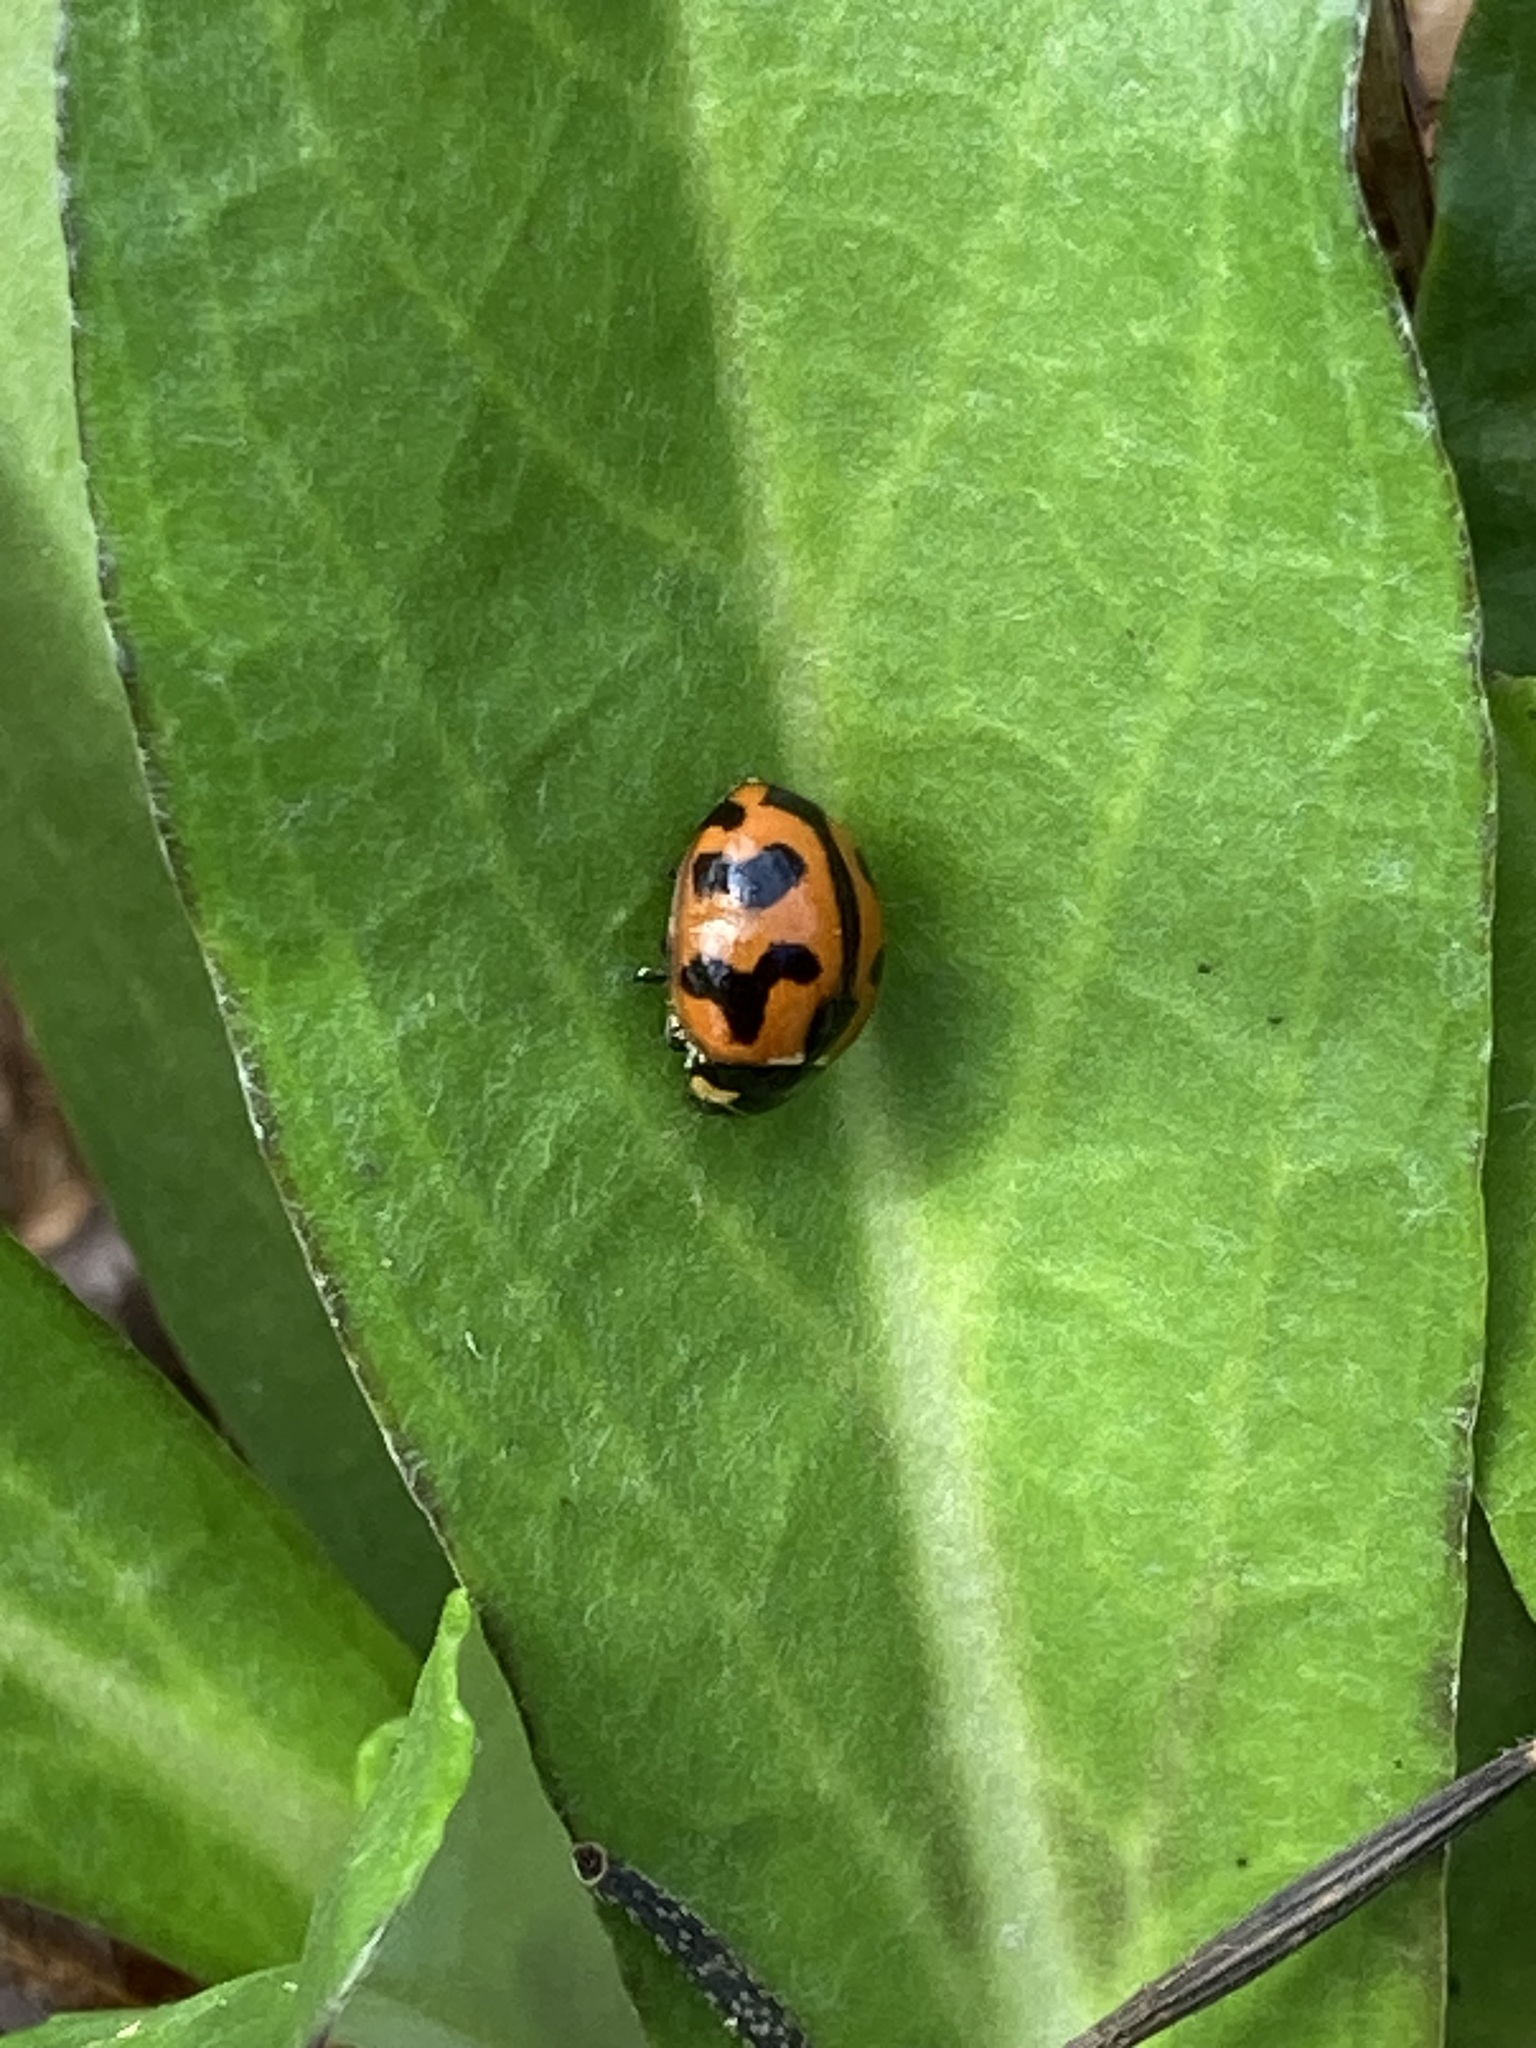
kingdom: Animalia
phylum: Arthropoda
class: Insecta
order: Coleoptera
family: Coccinellidae
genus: Coccinella
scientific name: Coccinella transversalis
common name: Transverse lady beetle
